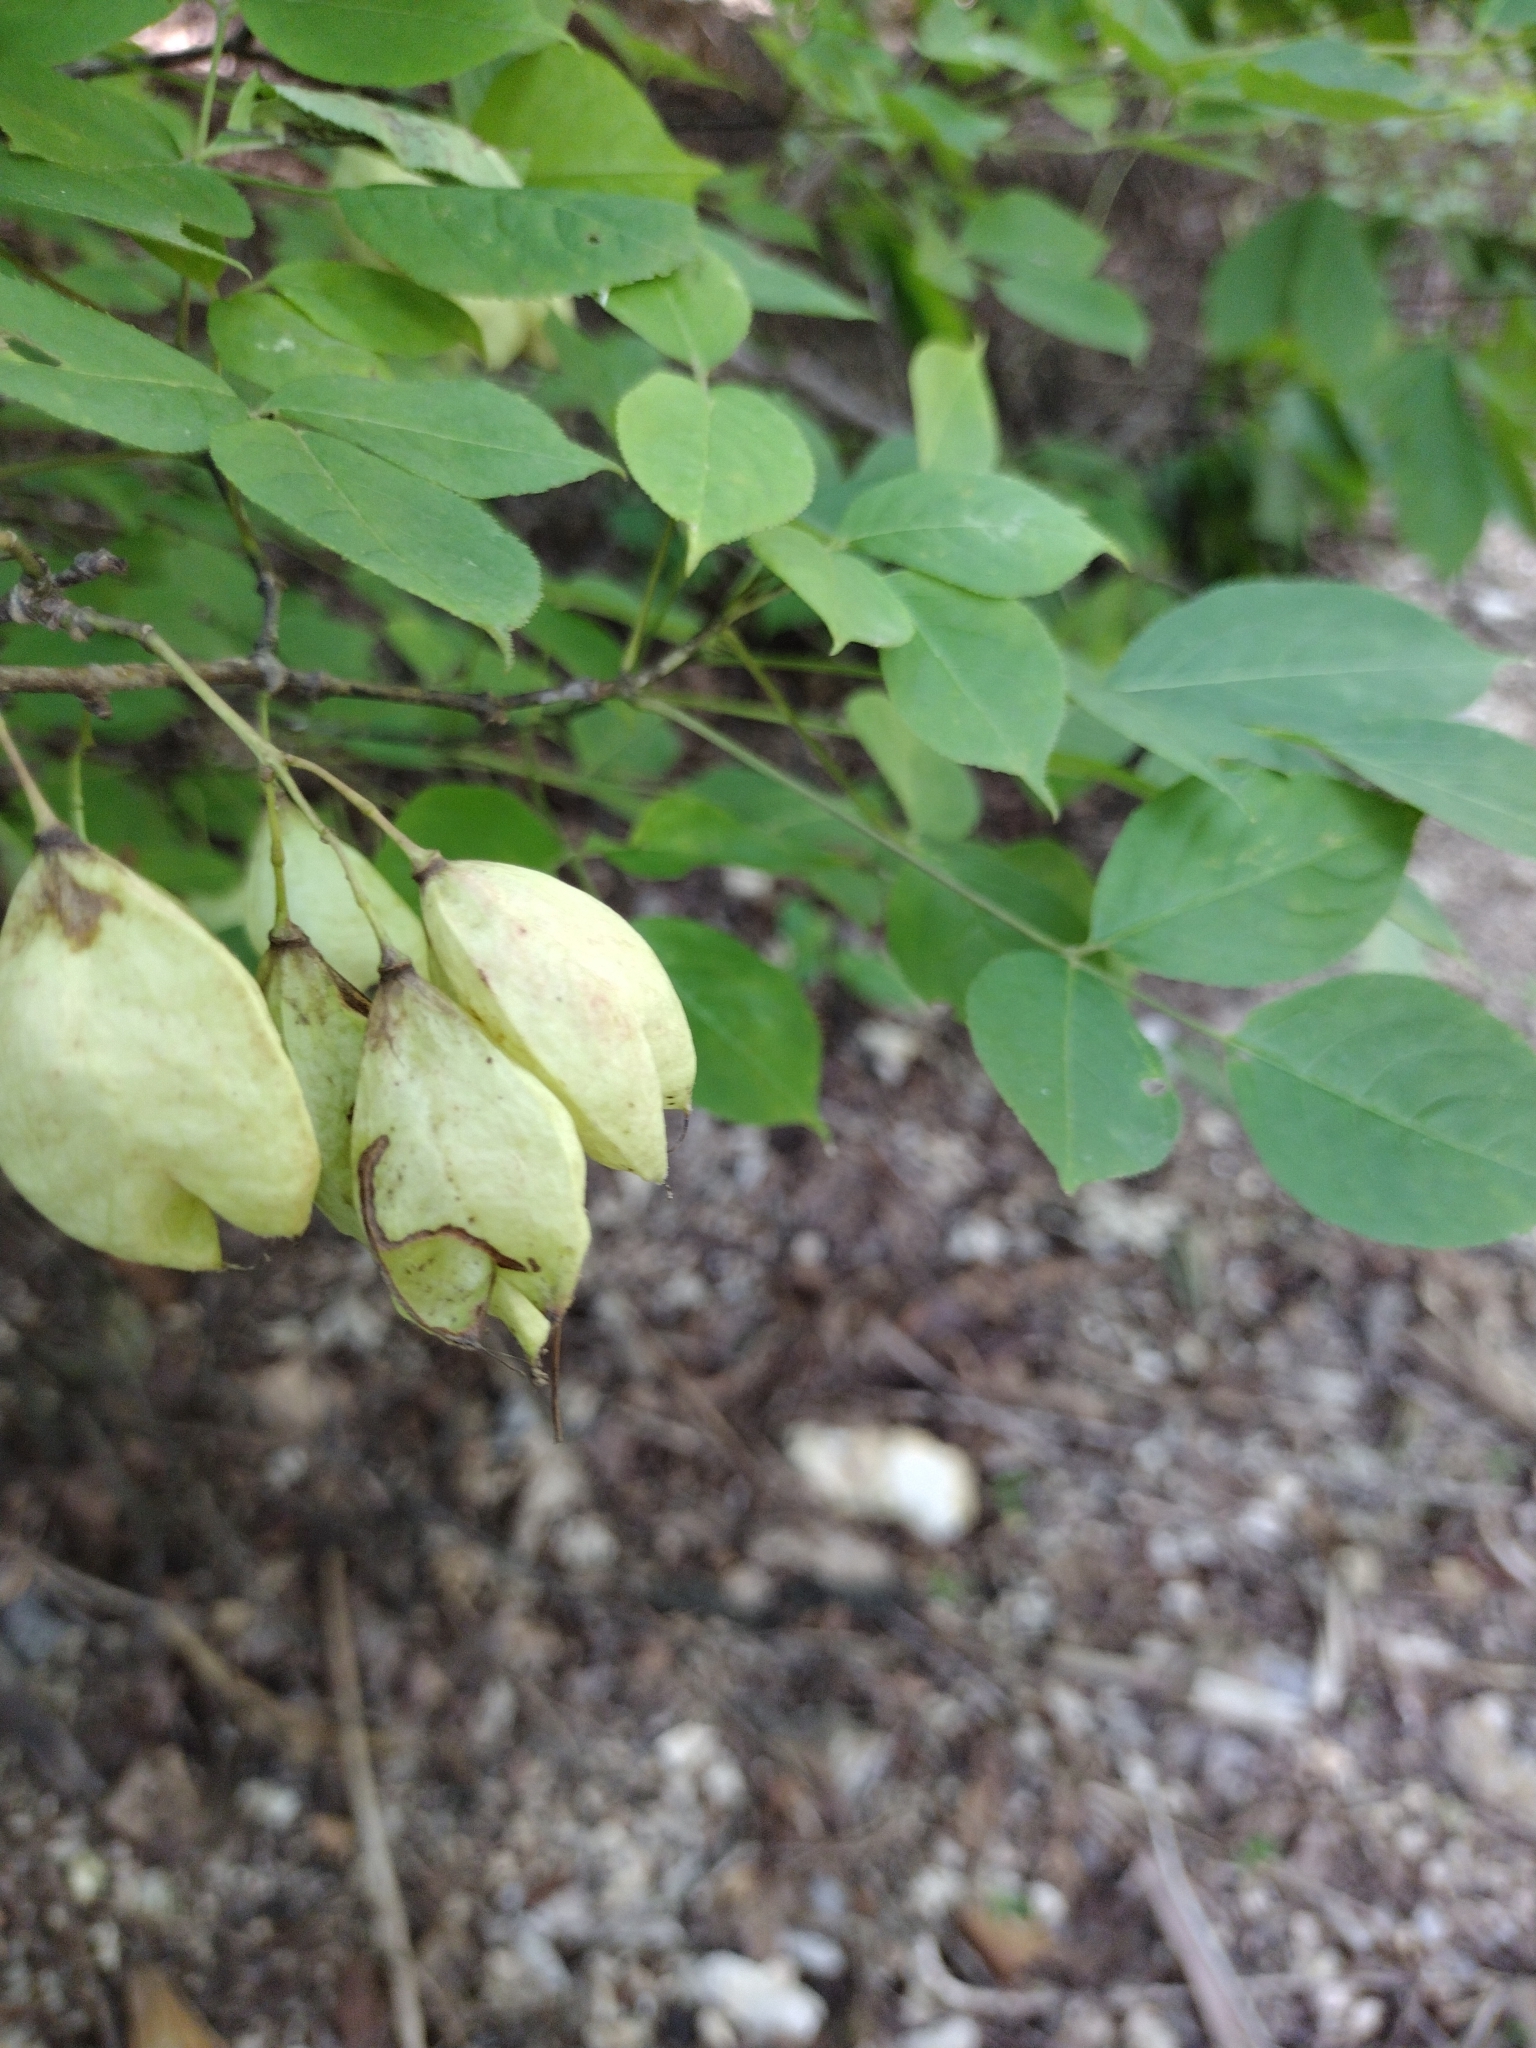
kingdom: Plantae
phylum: Tracheophyta
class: Magnoliopsida
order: Crossosomatales
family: Staphyleaceae
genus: Staphylea
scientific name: Staphylea trifolia
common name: American bladdernut
